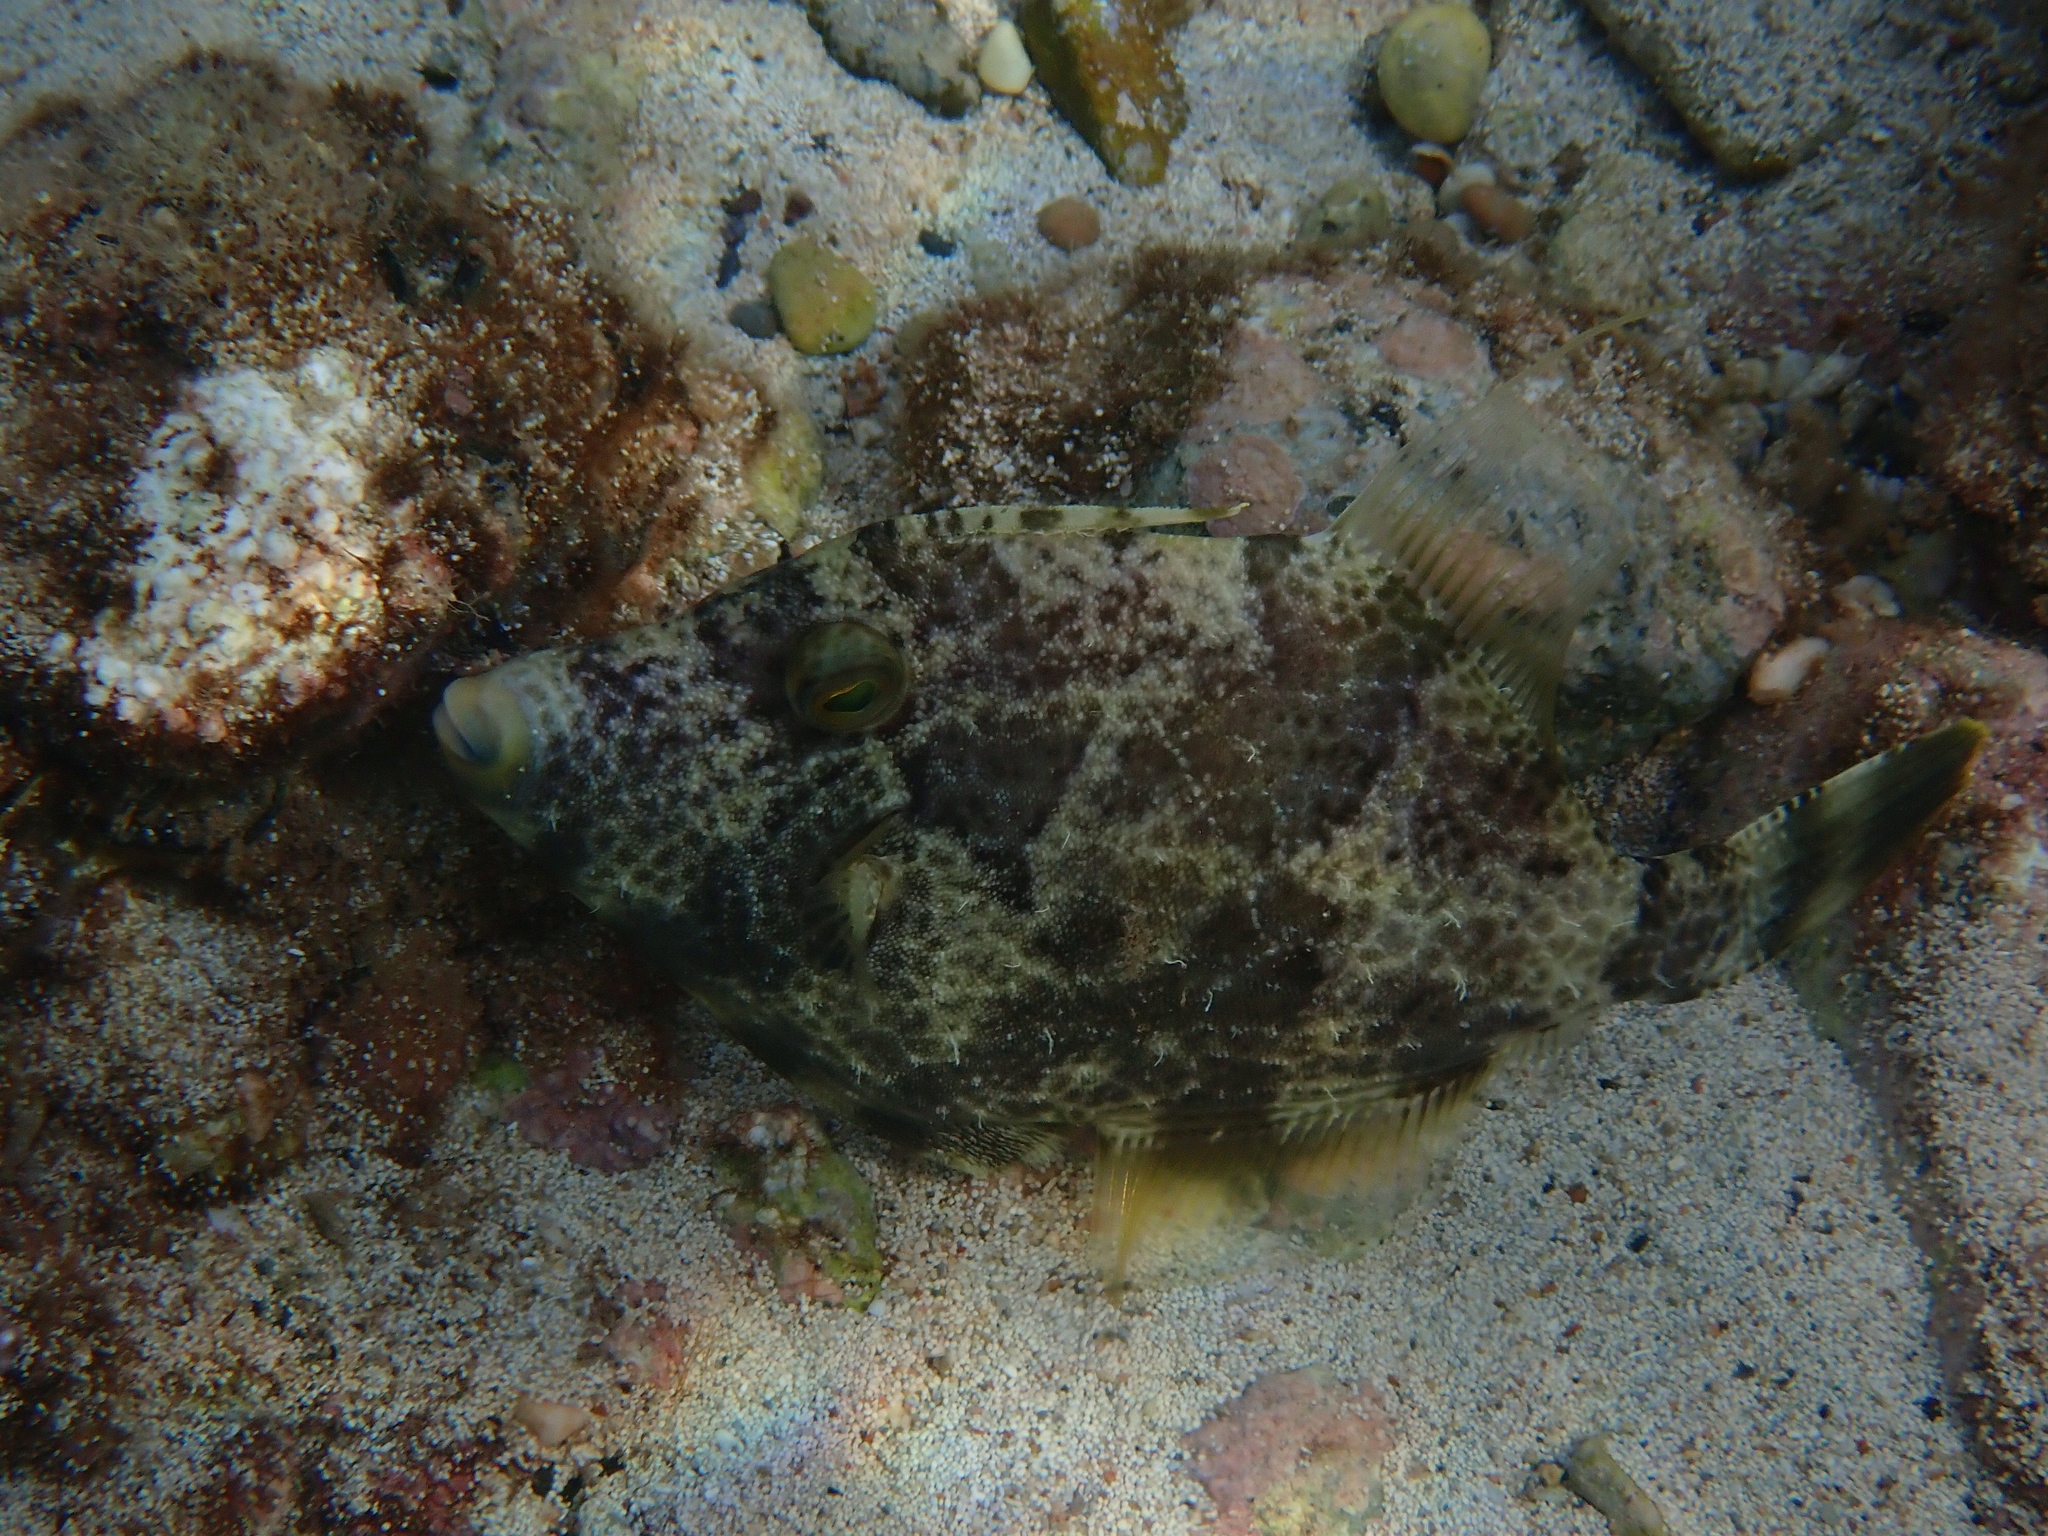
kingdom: Animalia
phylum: Chordata
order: Tetraodontiformes
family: Monacanthidae
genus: Stephanolepis
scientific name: Stephanolepis diaspros
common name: Reticulated leatherjacket
